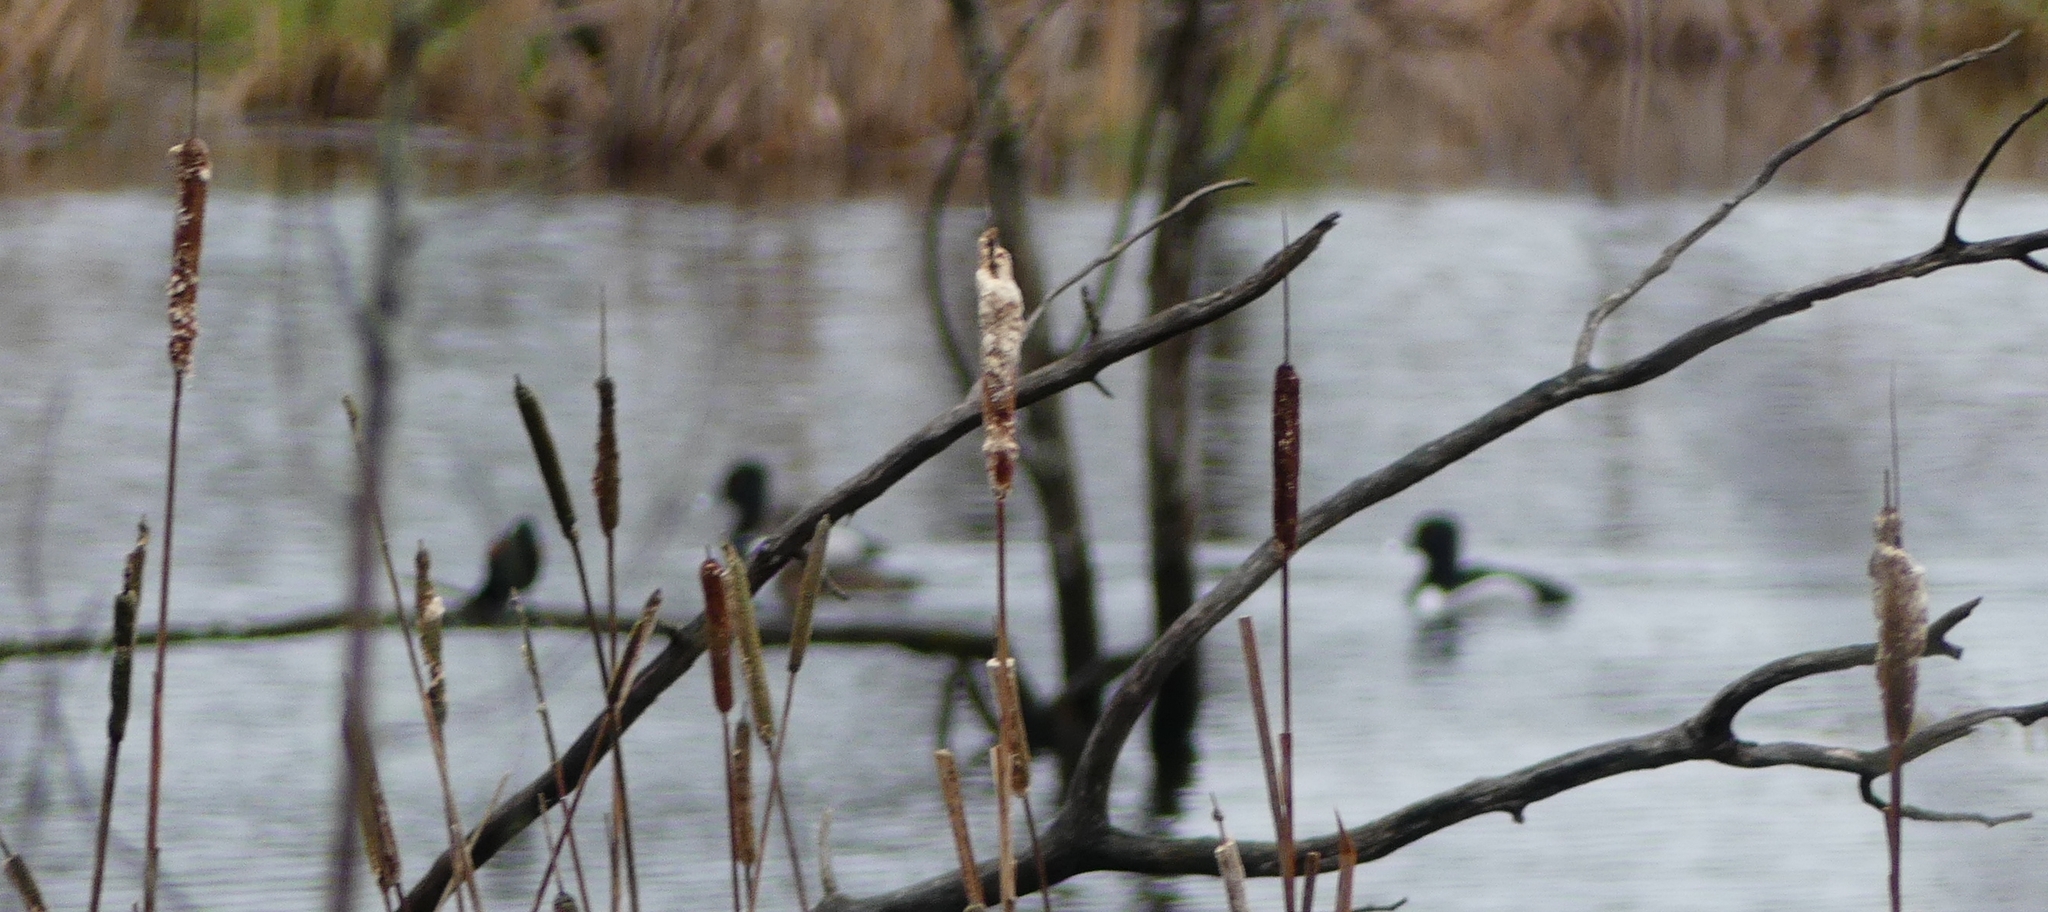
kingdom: Animalia
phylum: Chordata
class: Aves
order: Anseriformes
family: Anatidae
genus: Aythya
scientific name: Aythya collaris
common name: Ring-necked duck
